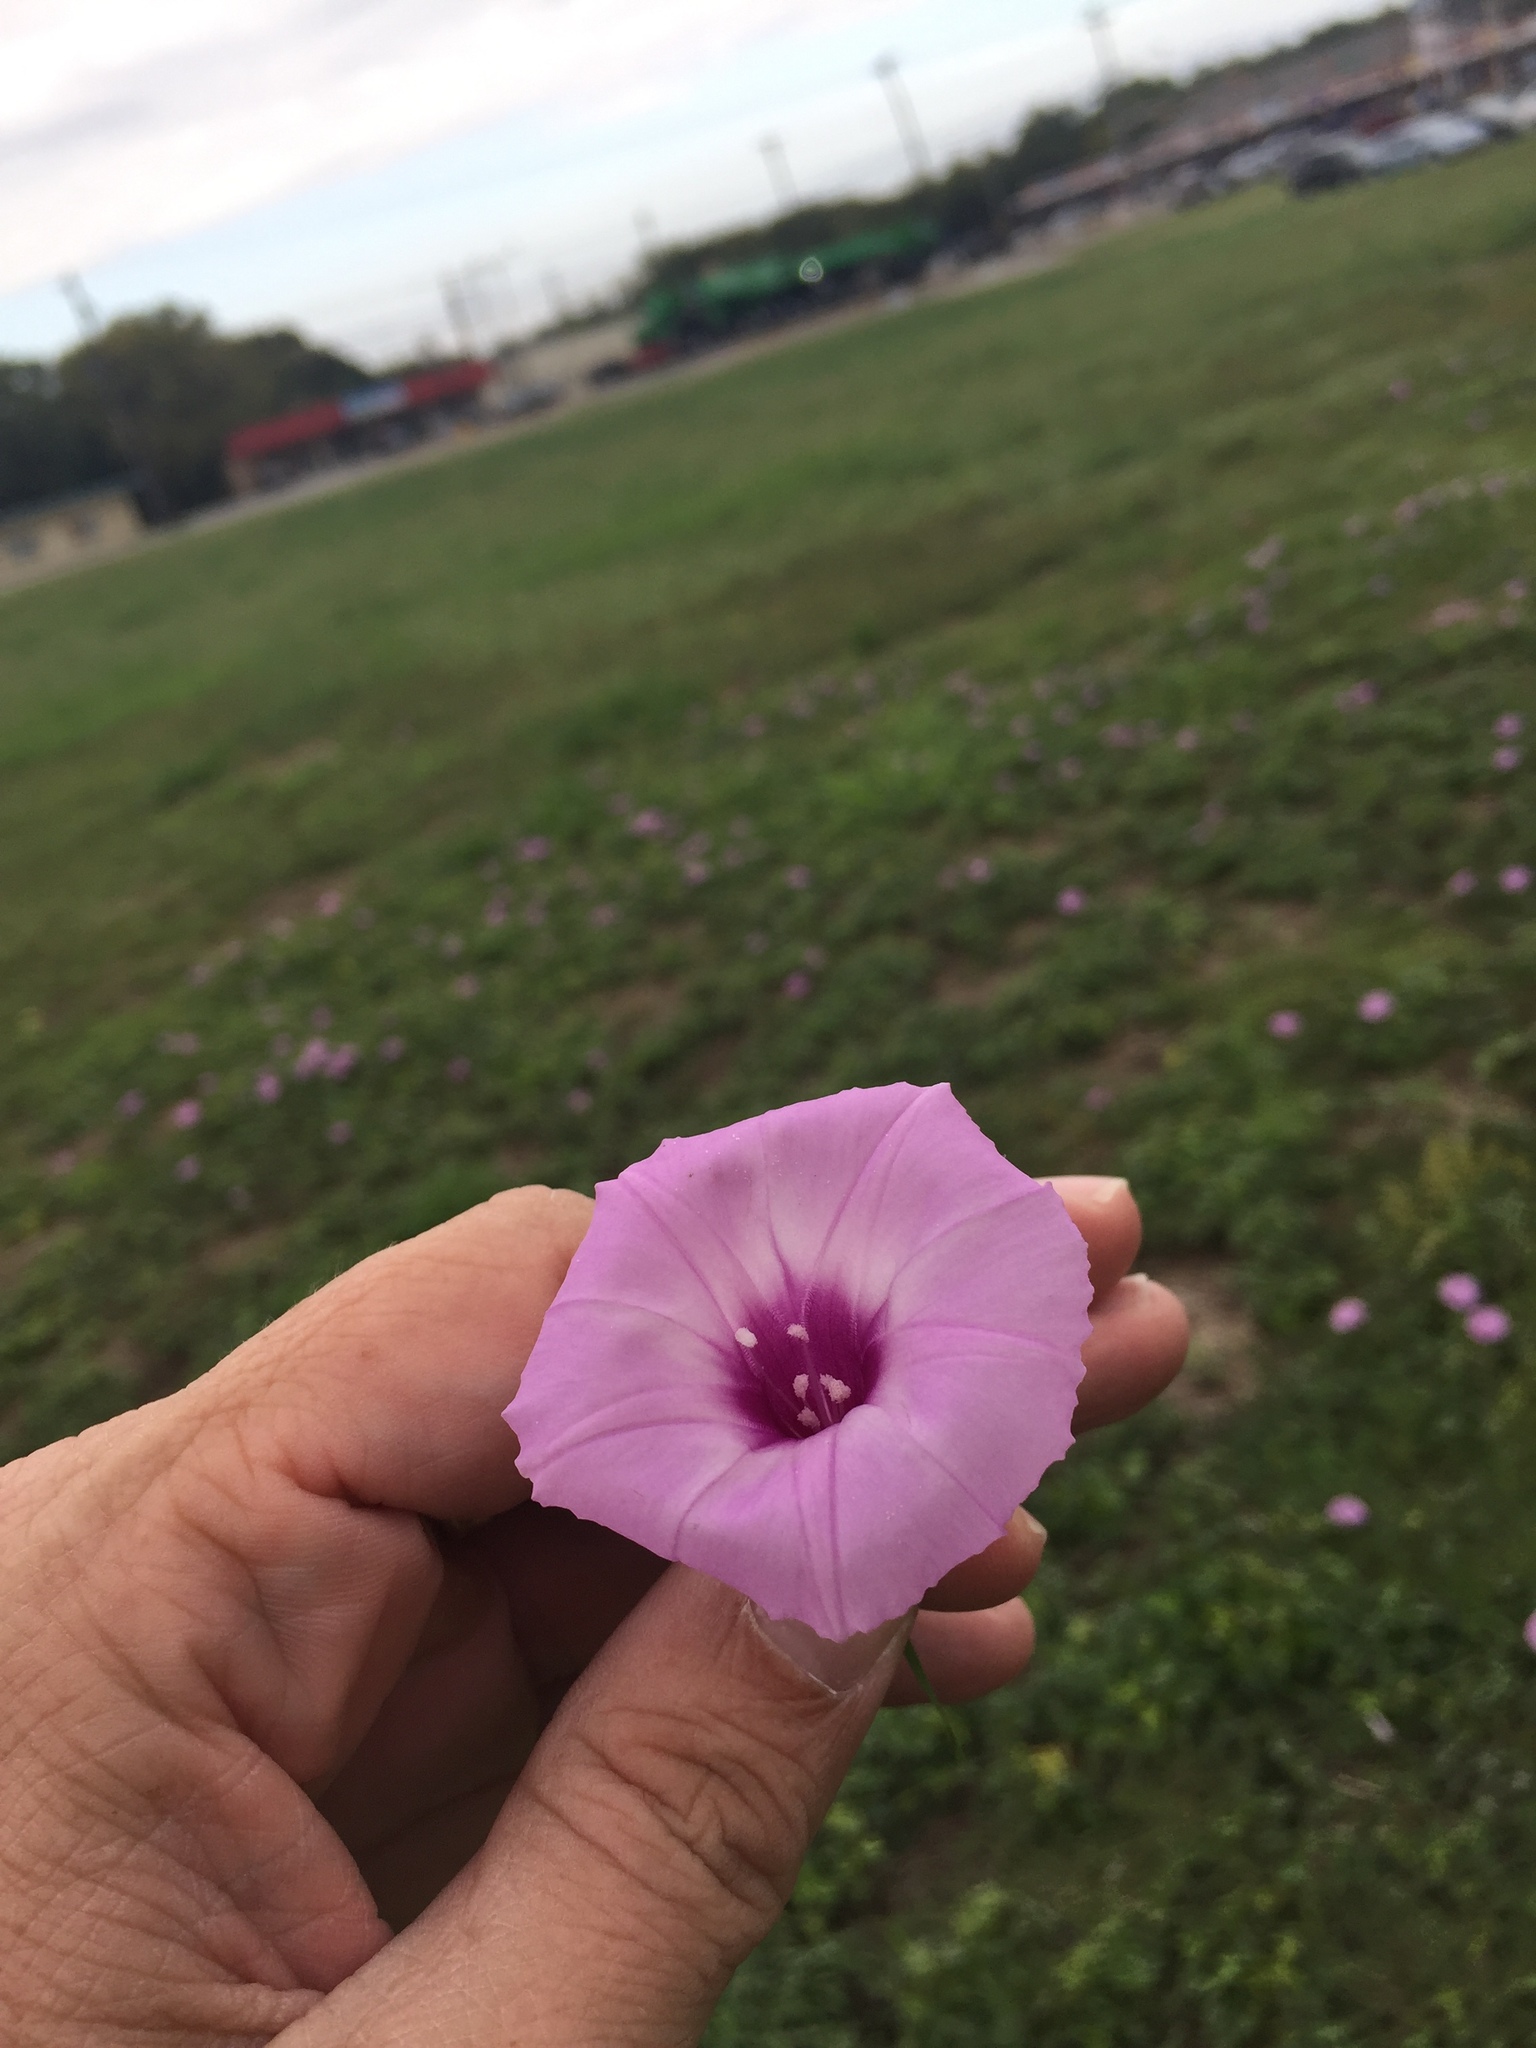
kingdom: Plantae
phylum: Tracheophyta
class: Magnoliopsida
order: Solanales
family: Convolvulaceae
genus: Ipomoea
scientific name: Ipomoea cordatotriloba
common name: Cotton morning glory
